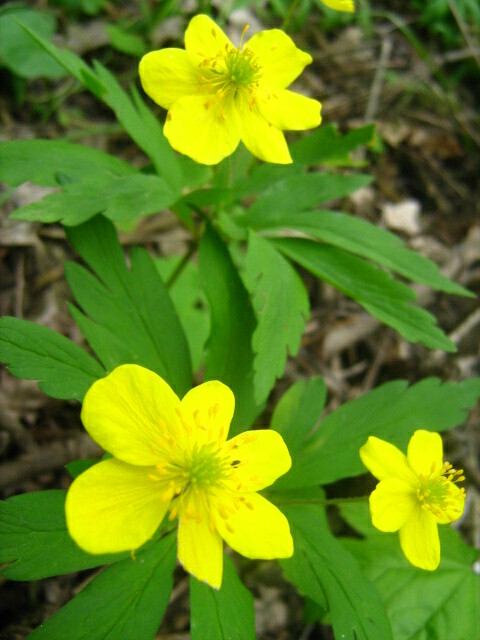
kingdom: Plantae
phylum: Tracheophyta
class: Magnoliopsida
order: Ranunculales
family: Ranunculaceae
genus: Anemone
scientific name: Anemone ranunculoides
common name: Yellow anemone
